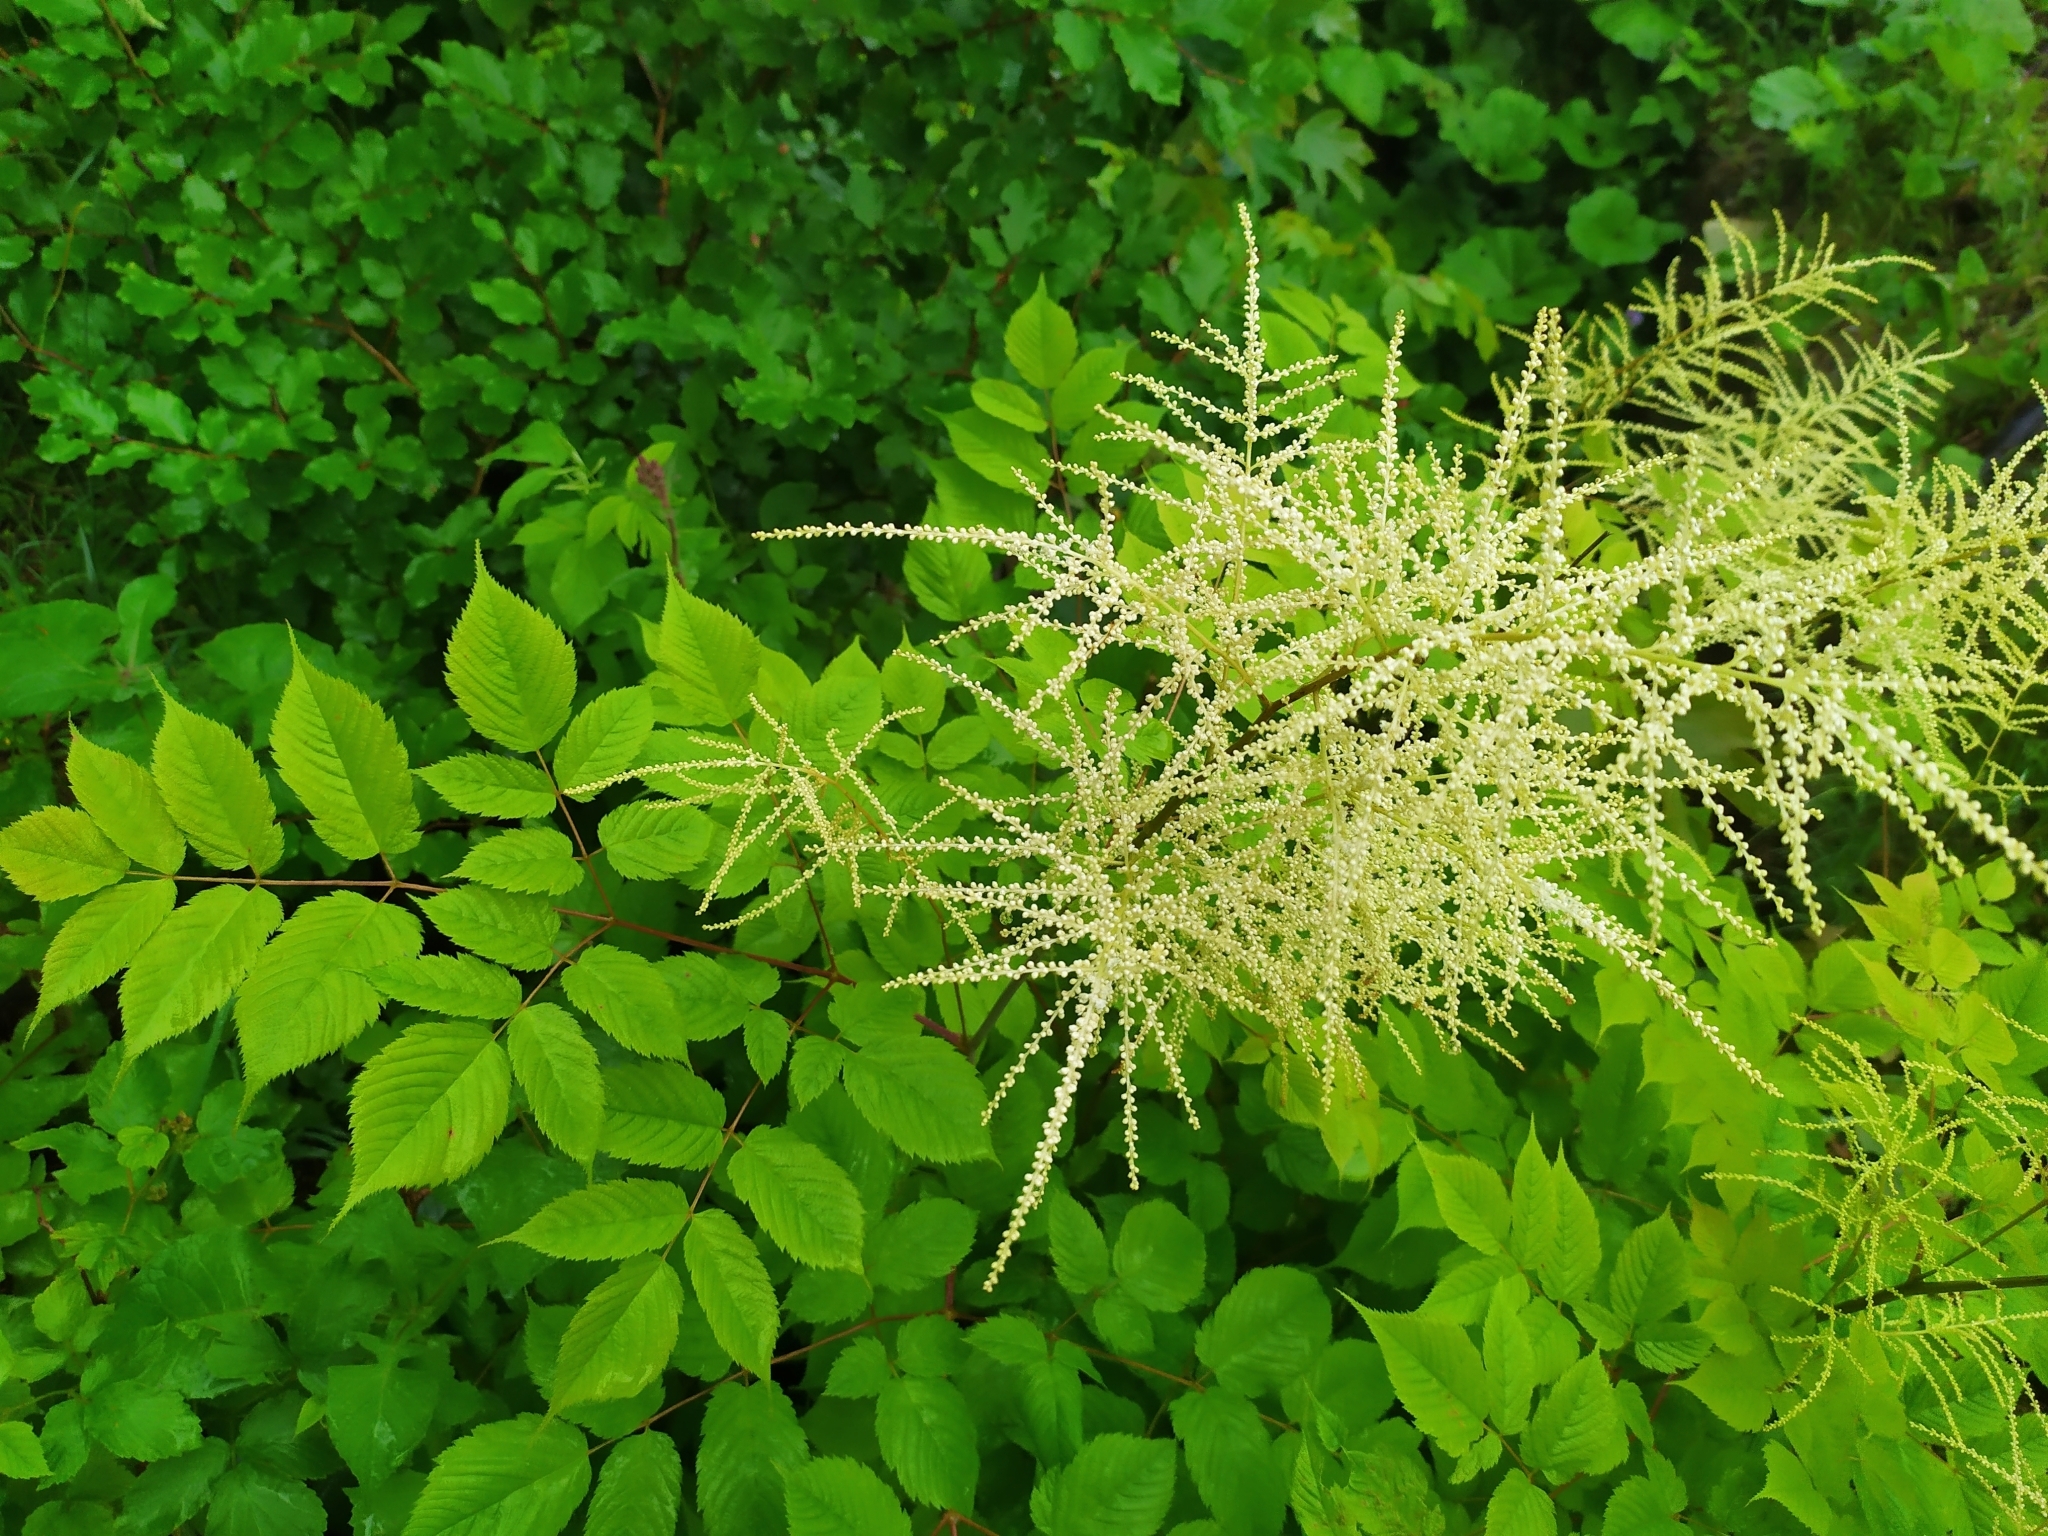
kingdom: Plantae
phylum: Tracheophyta
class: Magnoliopsida
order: Rosales
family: Rosaceae
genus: Aruncus
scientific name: Aruncus dioicus
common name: Buck's-beard
